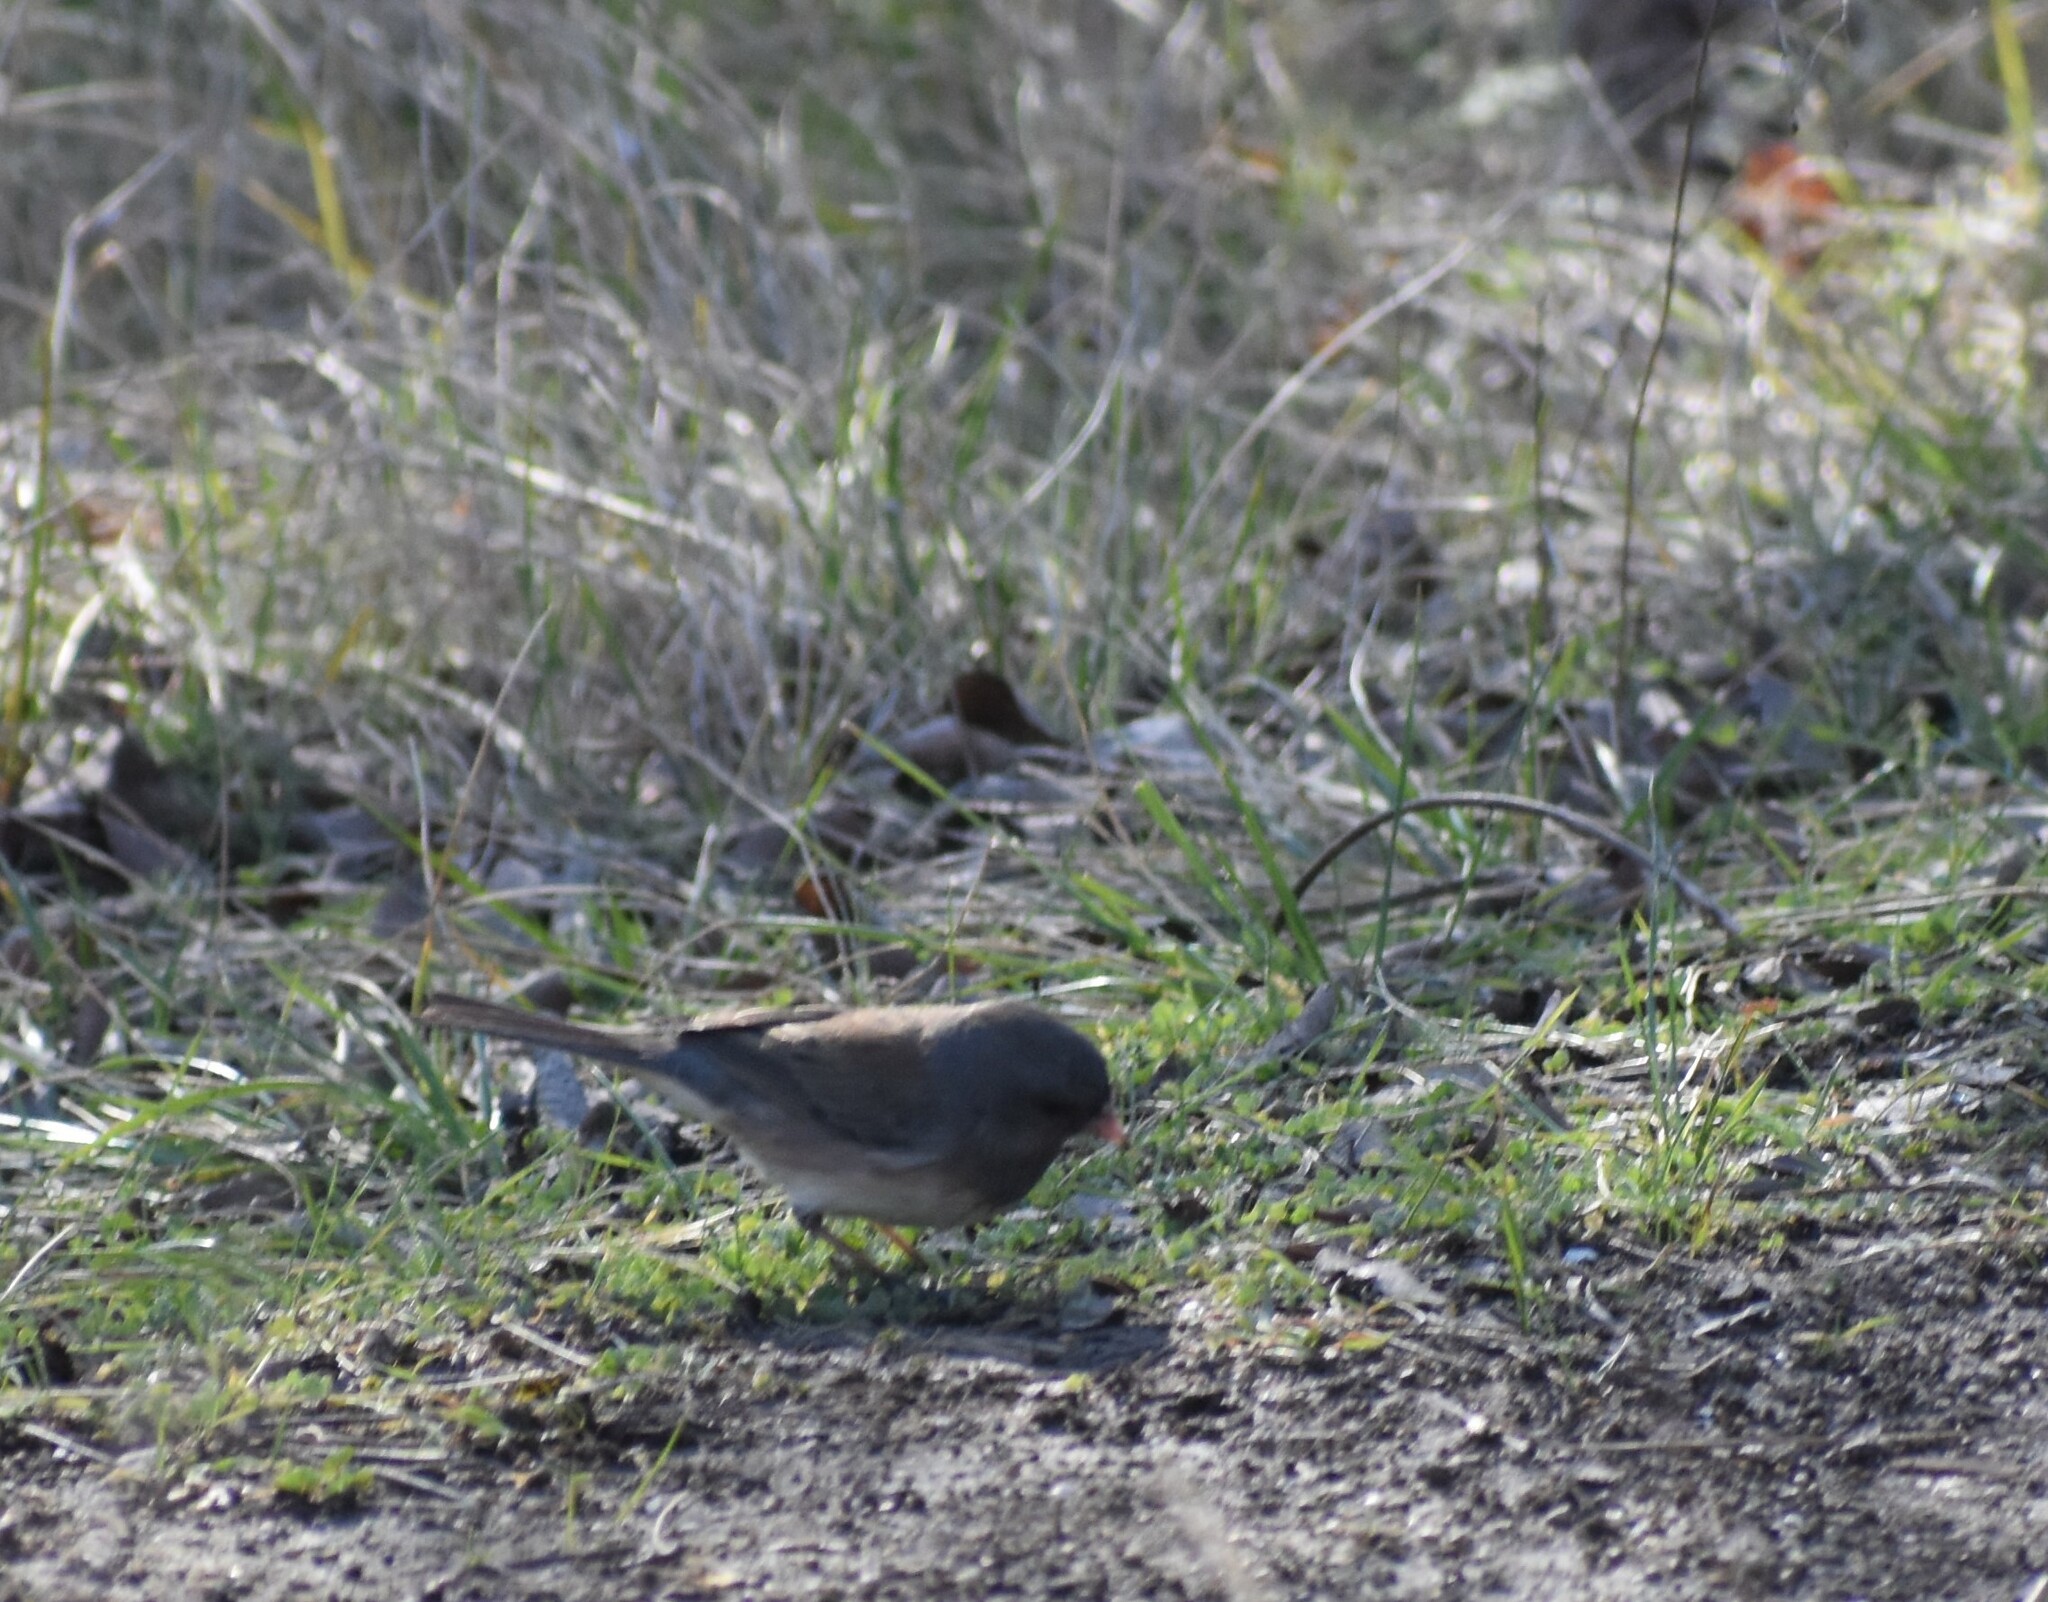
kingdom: Animalia
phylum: Chordata
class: Aves
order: Passeriformes
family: Passerellidae
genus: Junco
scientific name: Junco hyemalis
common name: Dark-eyed junco
